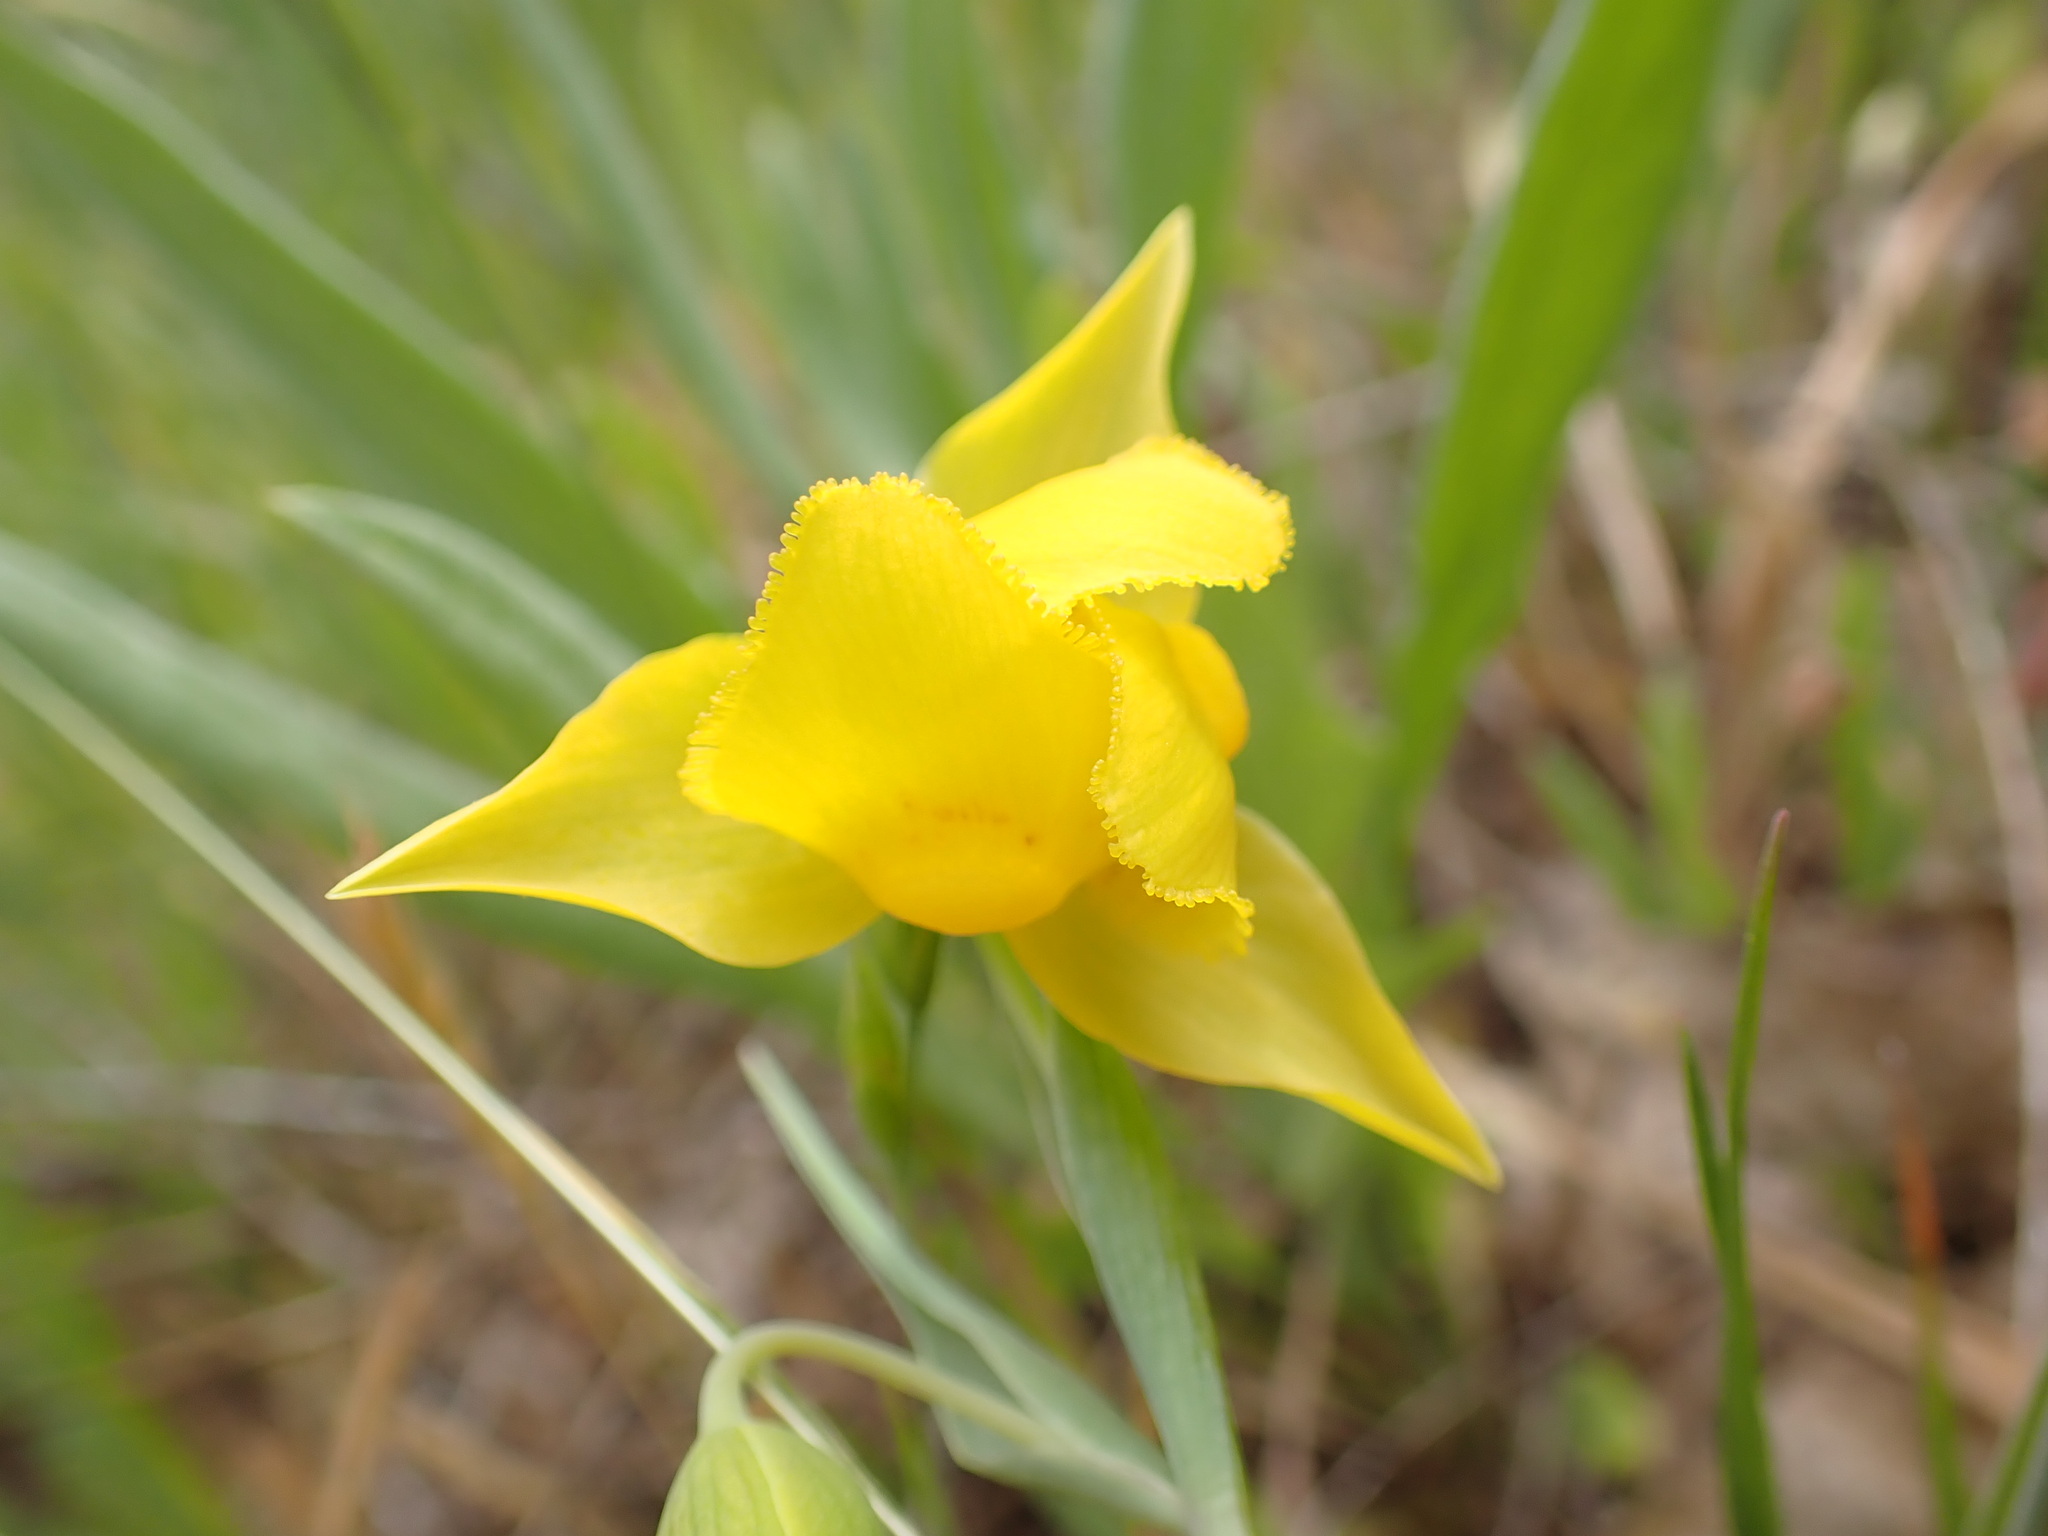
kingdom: Plantae
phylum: Tracheophyta
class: Liliopsida
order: Liliales
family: Liliaceae
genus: Calochortus
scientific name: Calochortus amabilis
